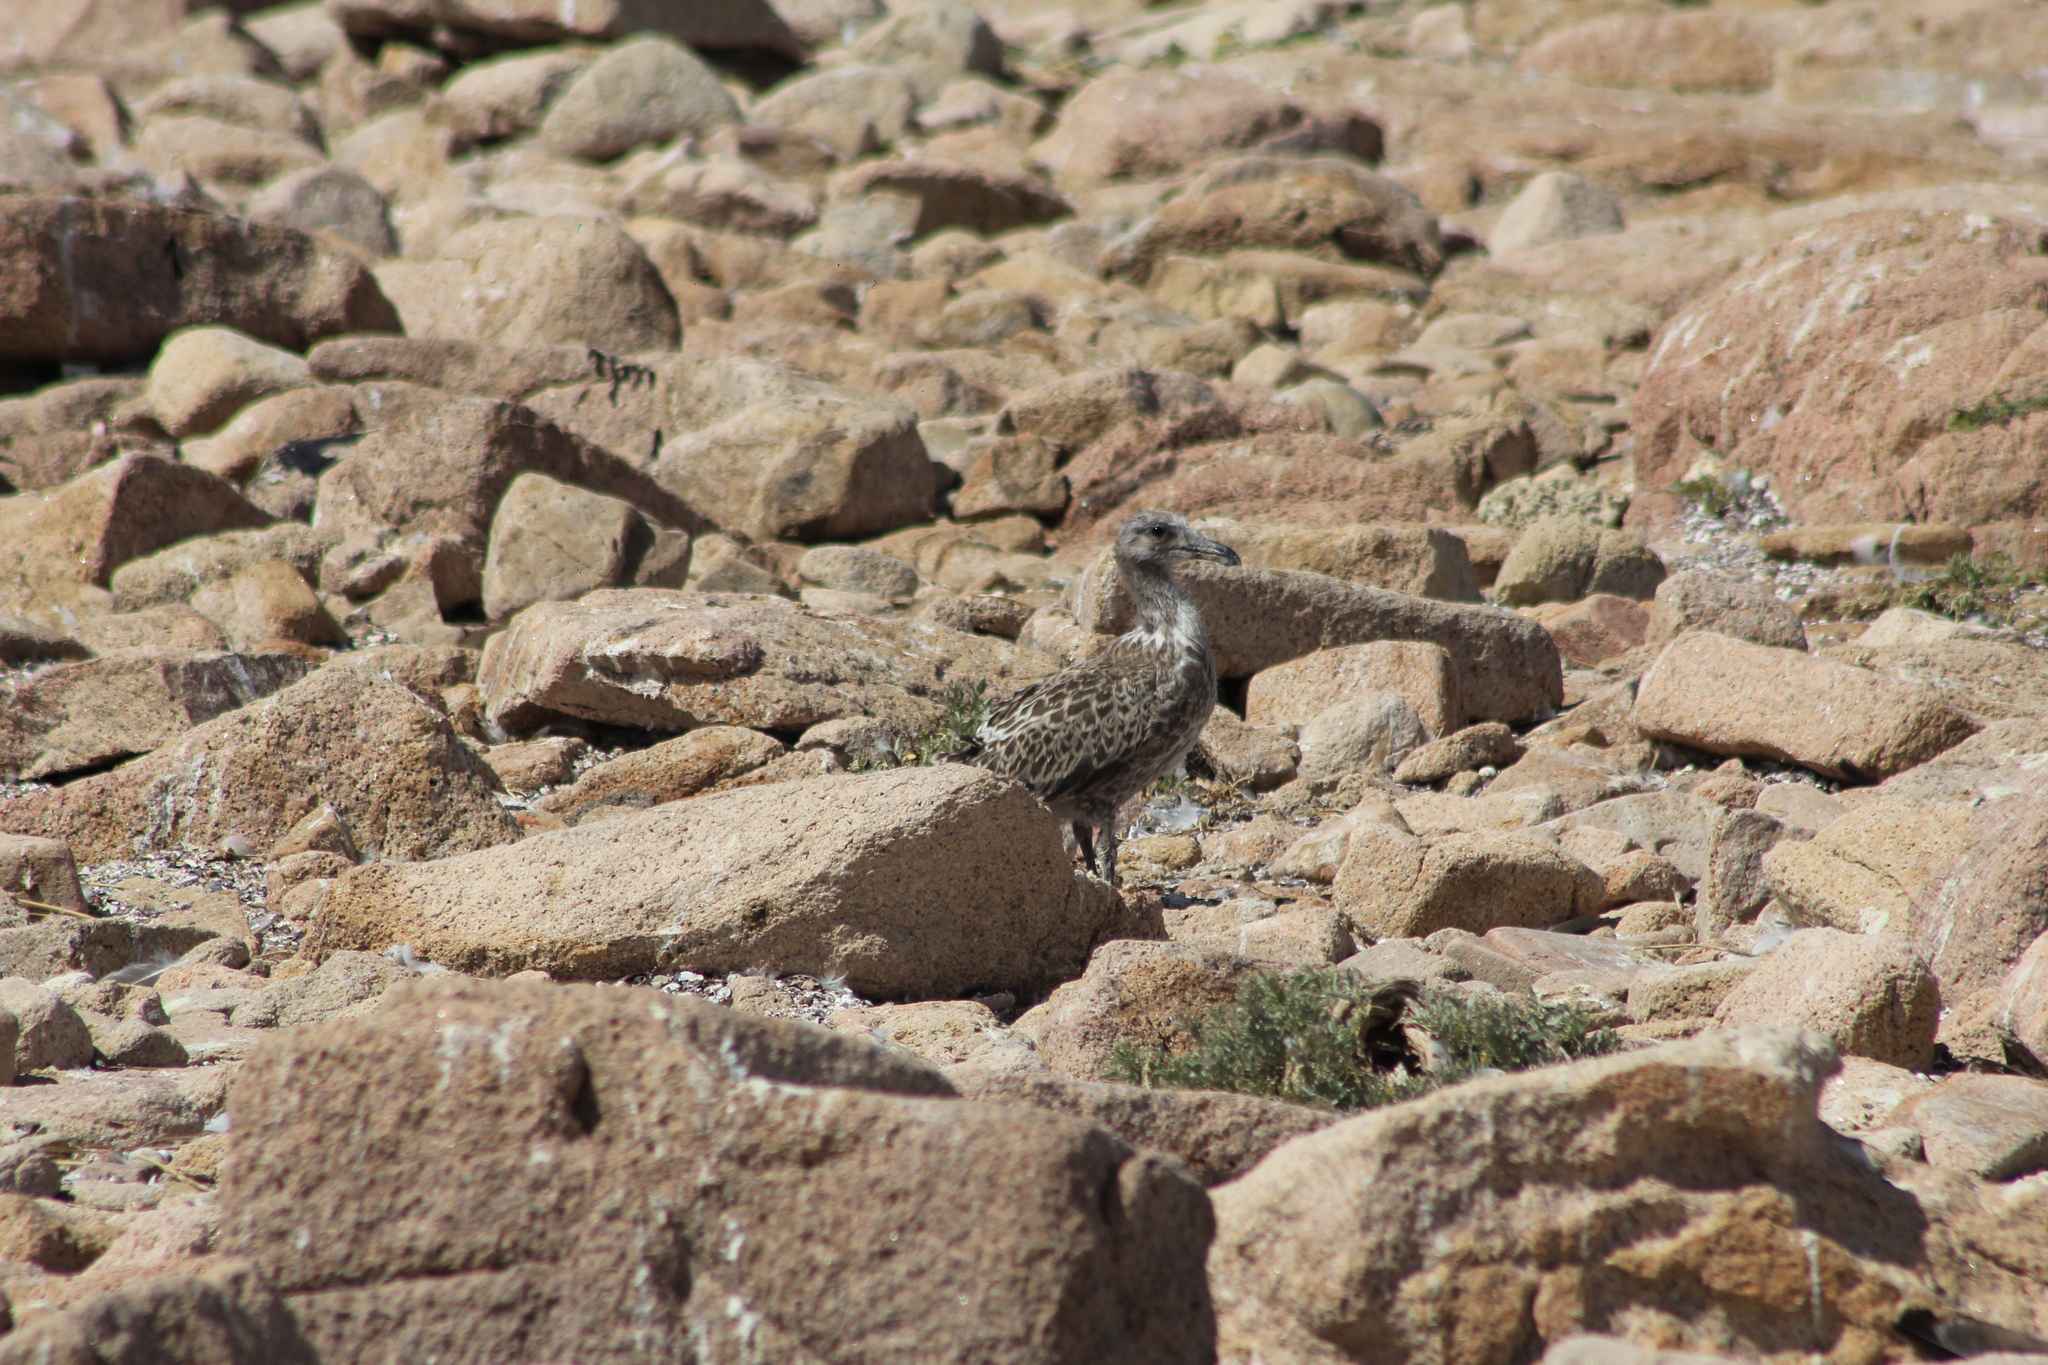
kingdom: Animalia
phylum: Chordata
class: Aves
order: Charadriiformes
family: Laridae
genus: Larus
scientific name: Larus dominicanus
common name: Kelp gull
